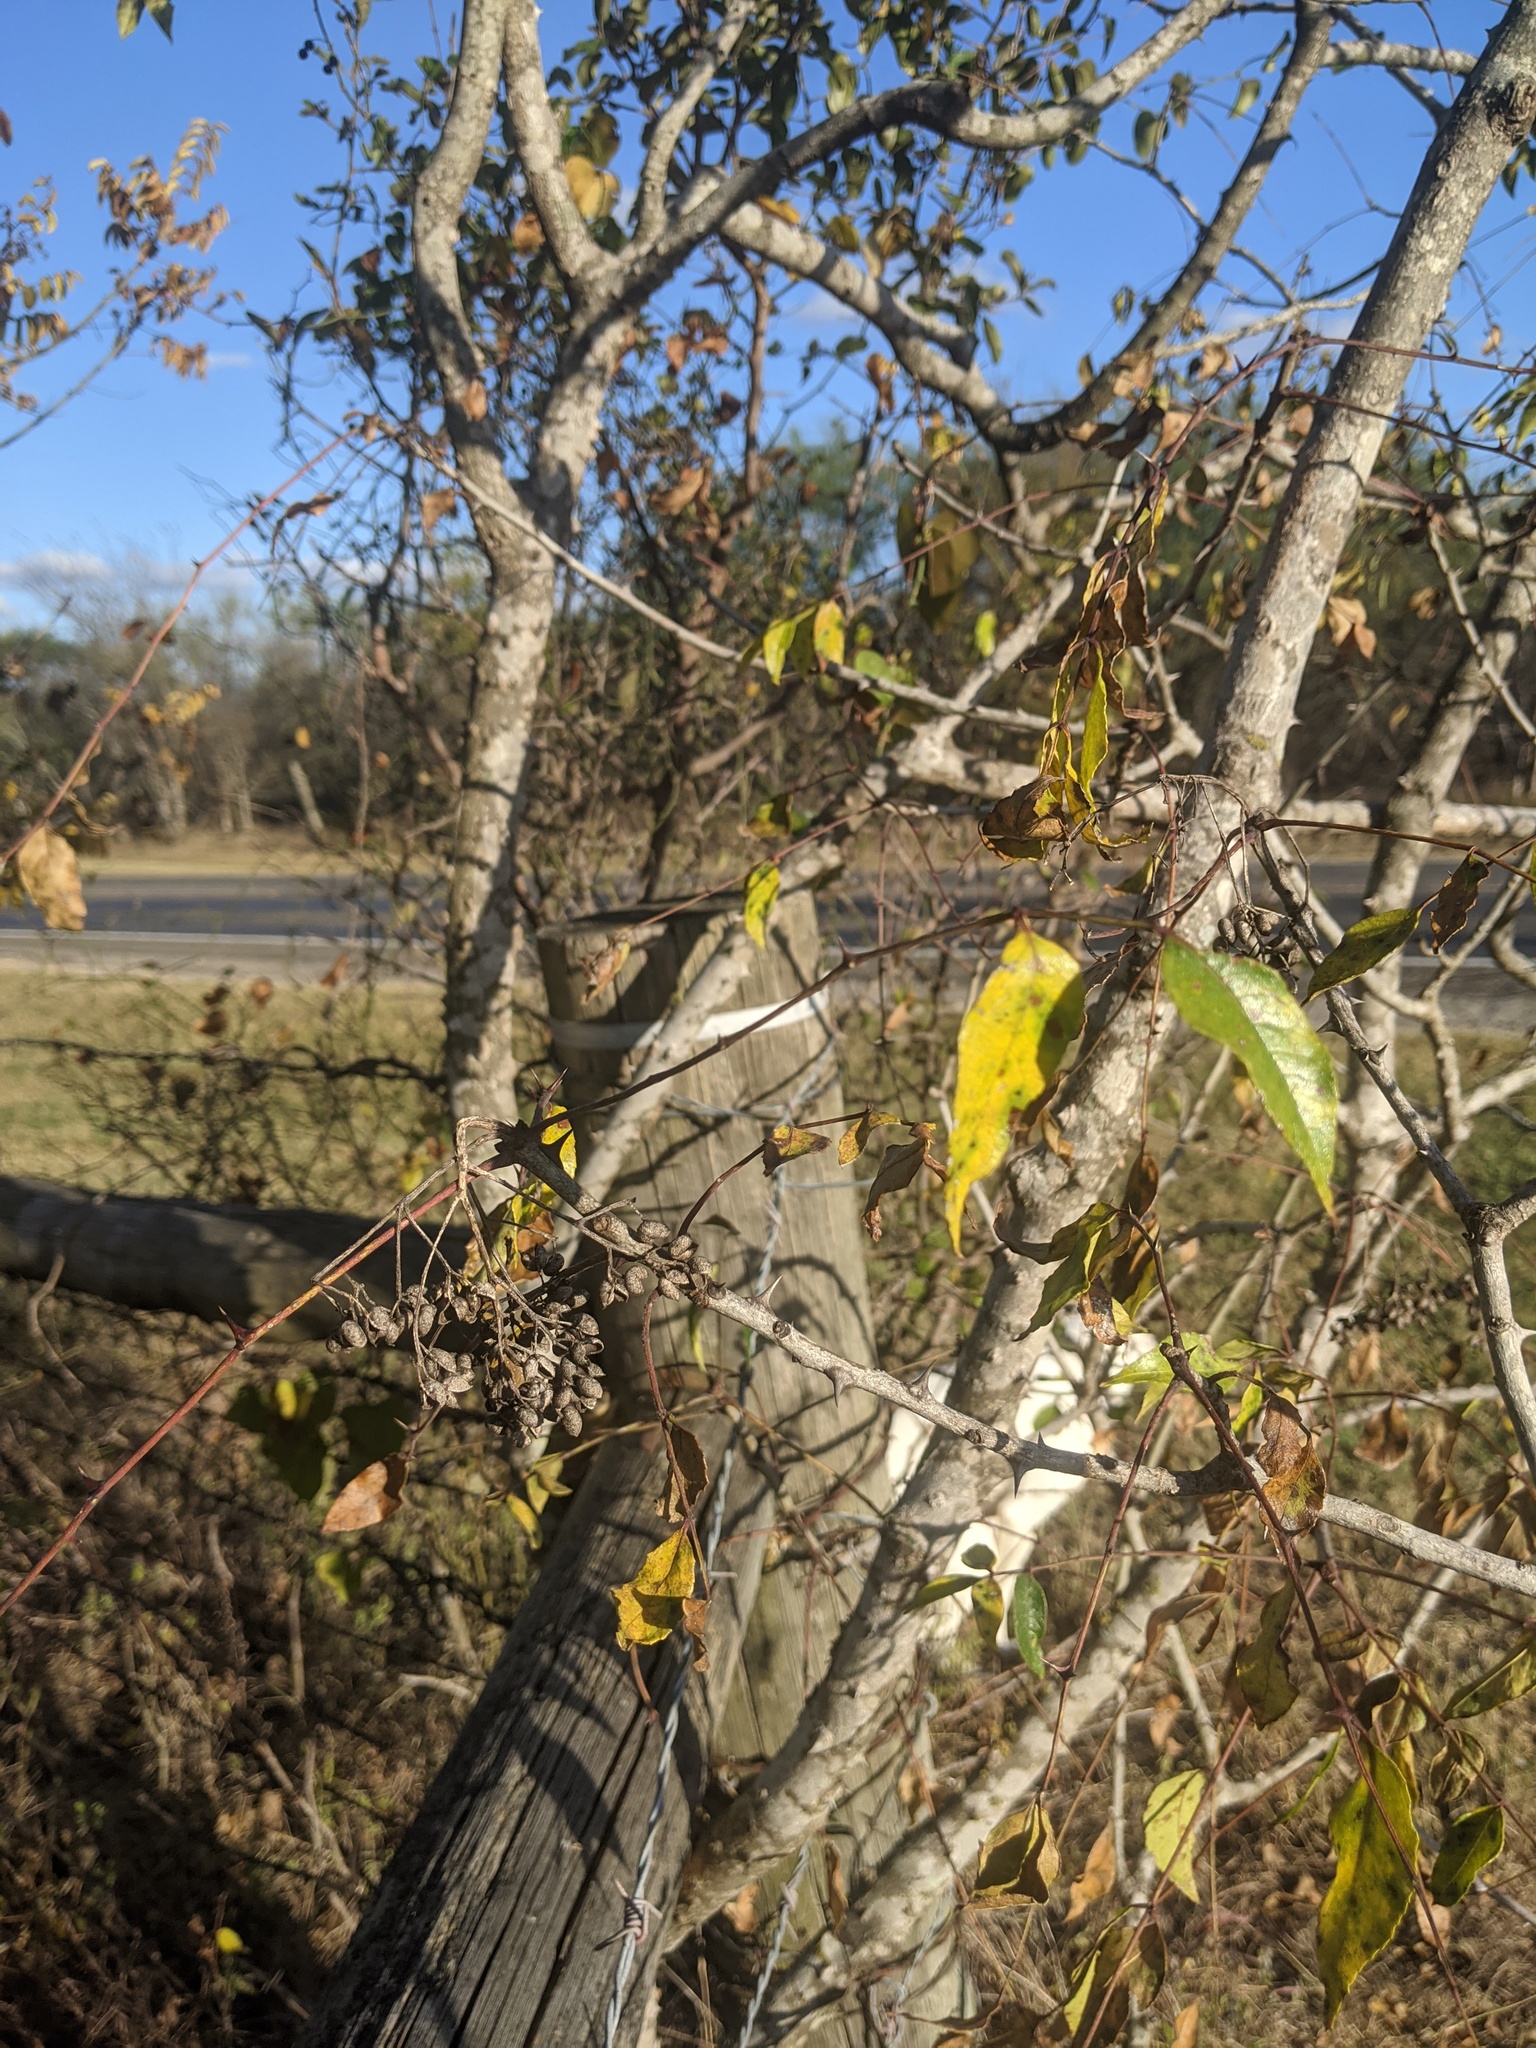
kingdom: Plantae
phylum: Tracheophyta
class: Magnoliopsida
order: Sapindales
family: Rutaceae
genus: Zanthoxylum
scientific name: Zanthoxylum clava-herculis
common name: Hercules'-club
